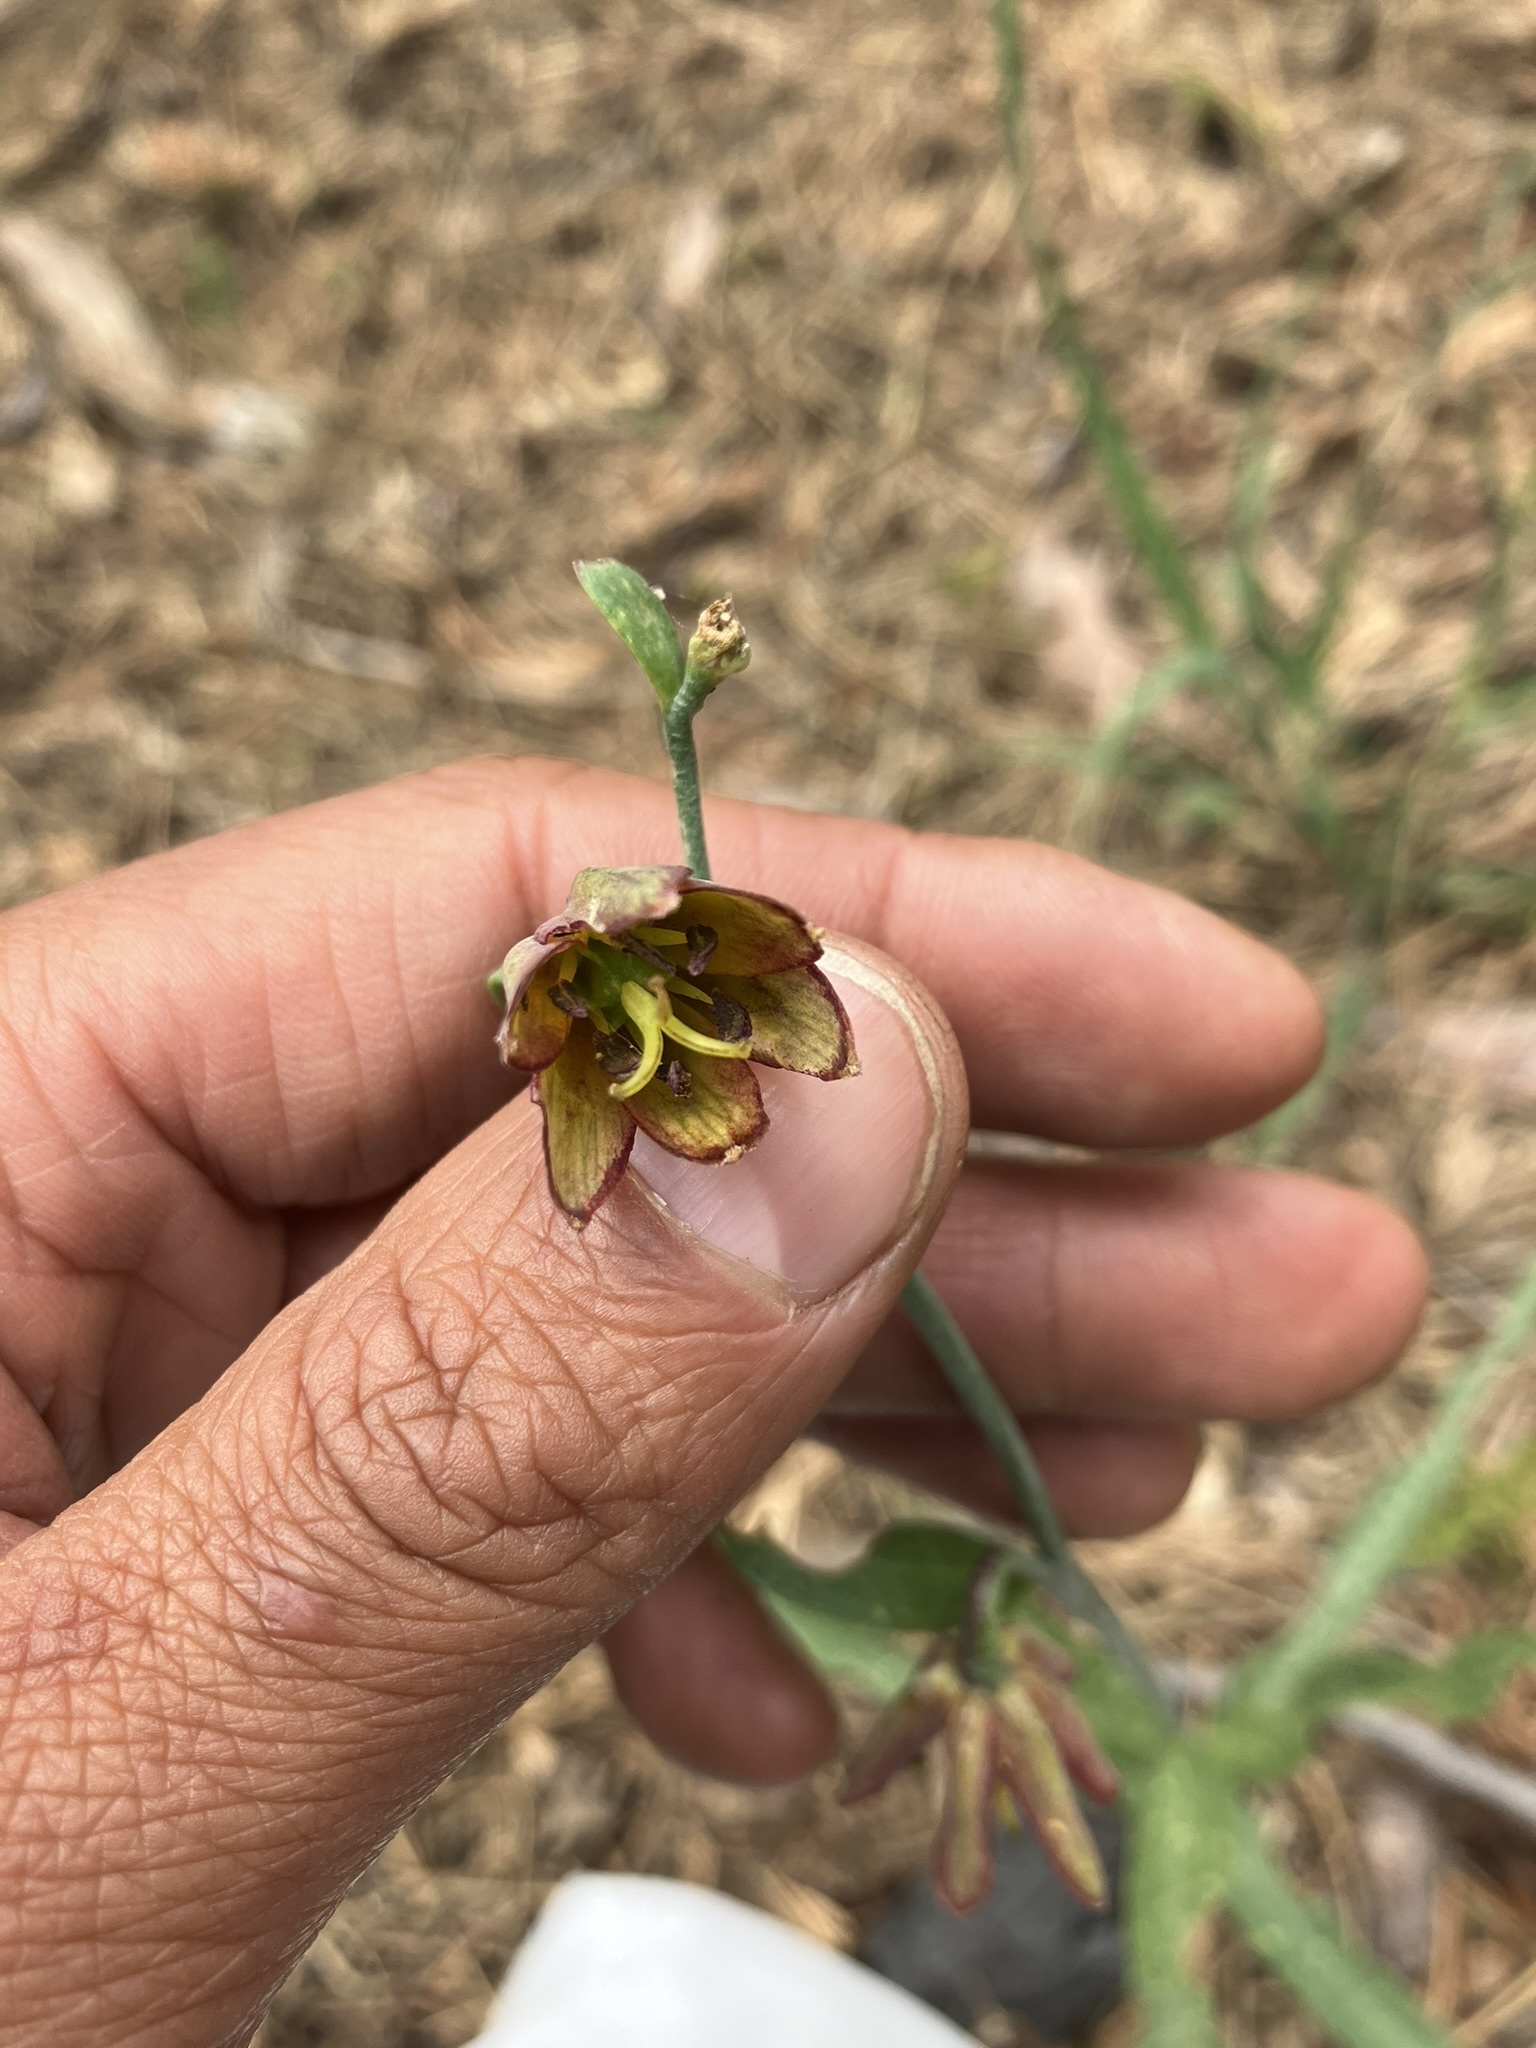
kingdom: Plantae
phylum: Tracheophyta
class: Liliopsida
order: Liliales
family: Liliaceae
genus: Fritillaria
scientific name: Fritillaria micrantha
